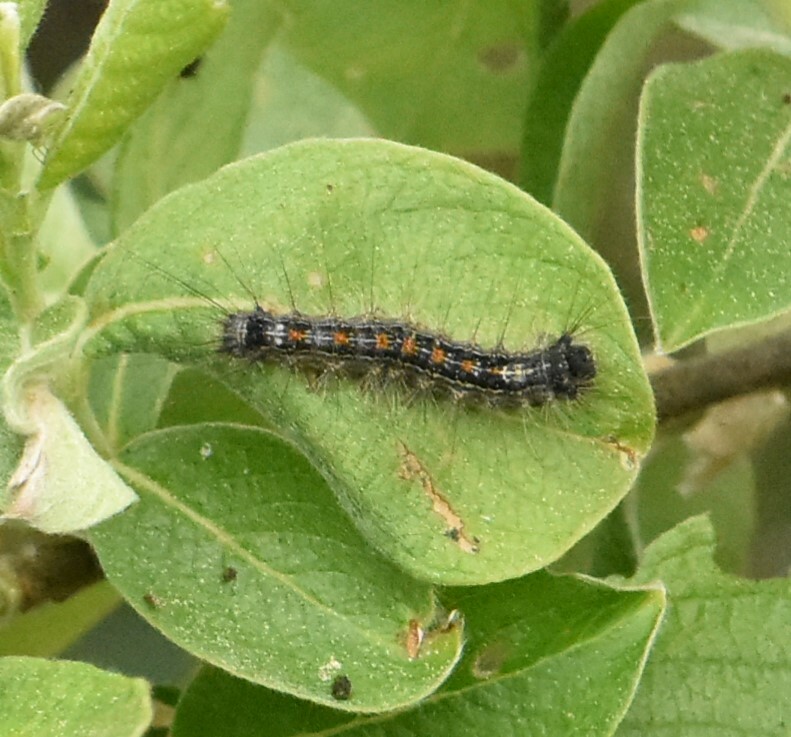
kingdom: Animalia
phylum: Arthropoda
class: Insecta
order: Lepidoptera
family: Erebidae
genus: Lymantria
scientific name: Lymantria dispar
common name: Gypsy moth
